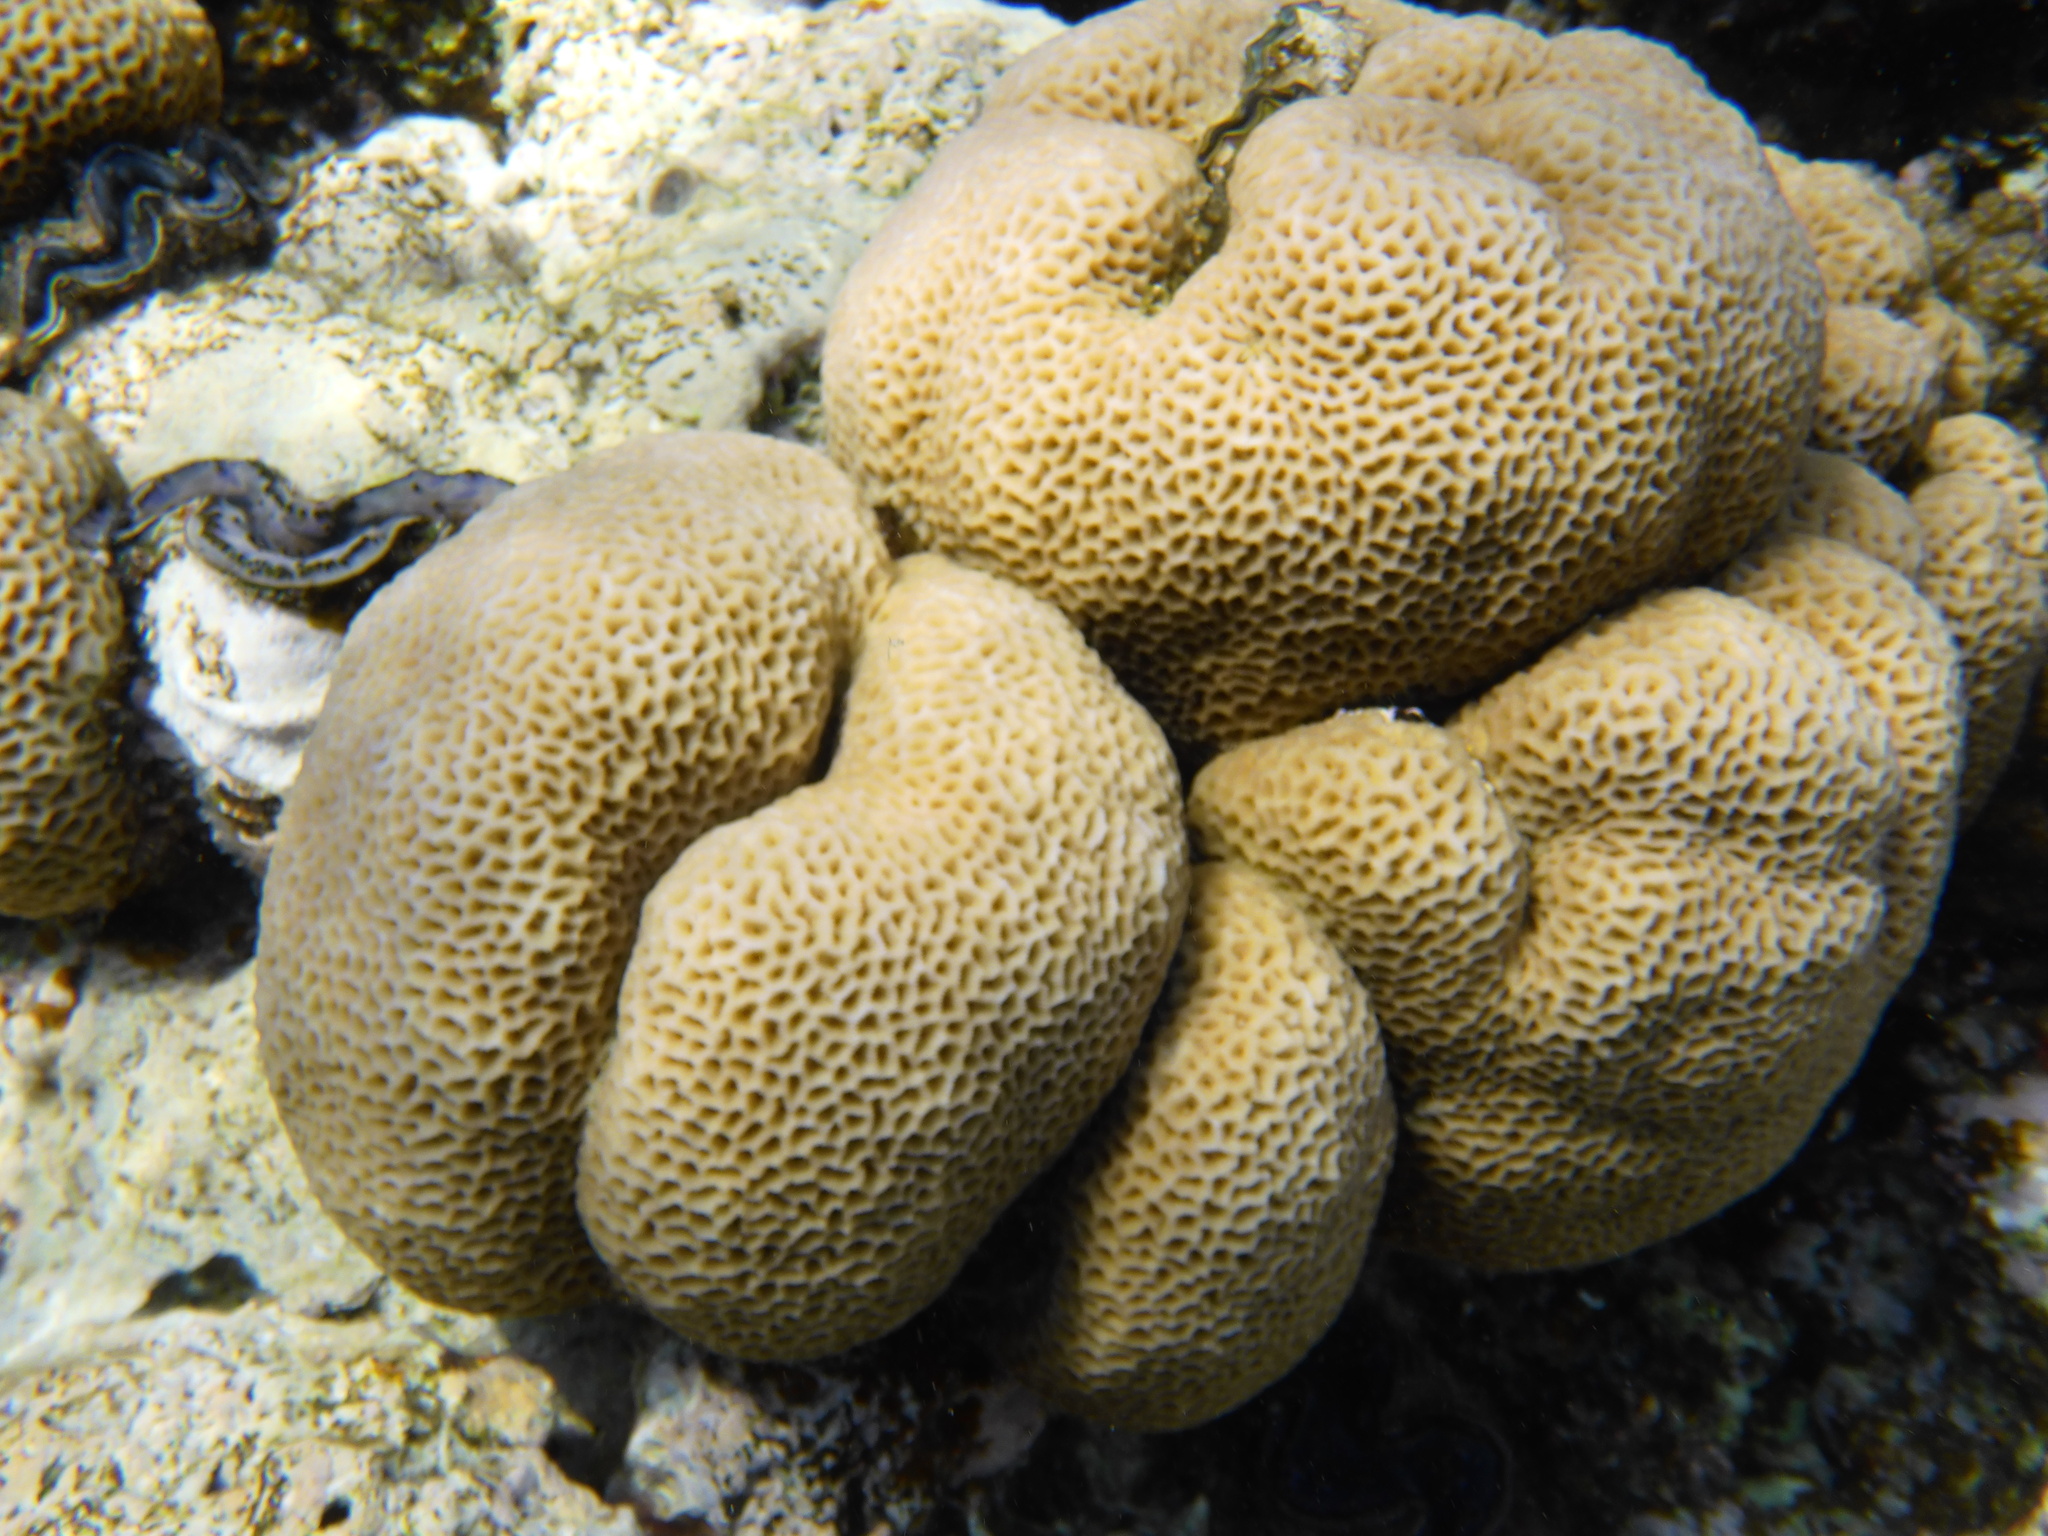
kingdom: Animalia
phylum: Cnidaria
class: Anthozoa
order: Scleractinia
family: Merulinidae
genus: Goniastrea
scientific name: Goniastrea pectinata
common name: Lesser star coral
